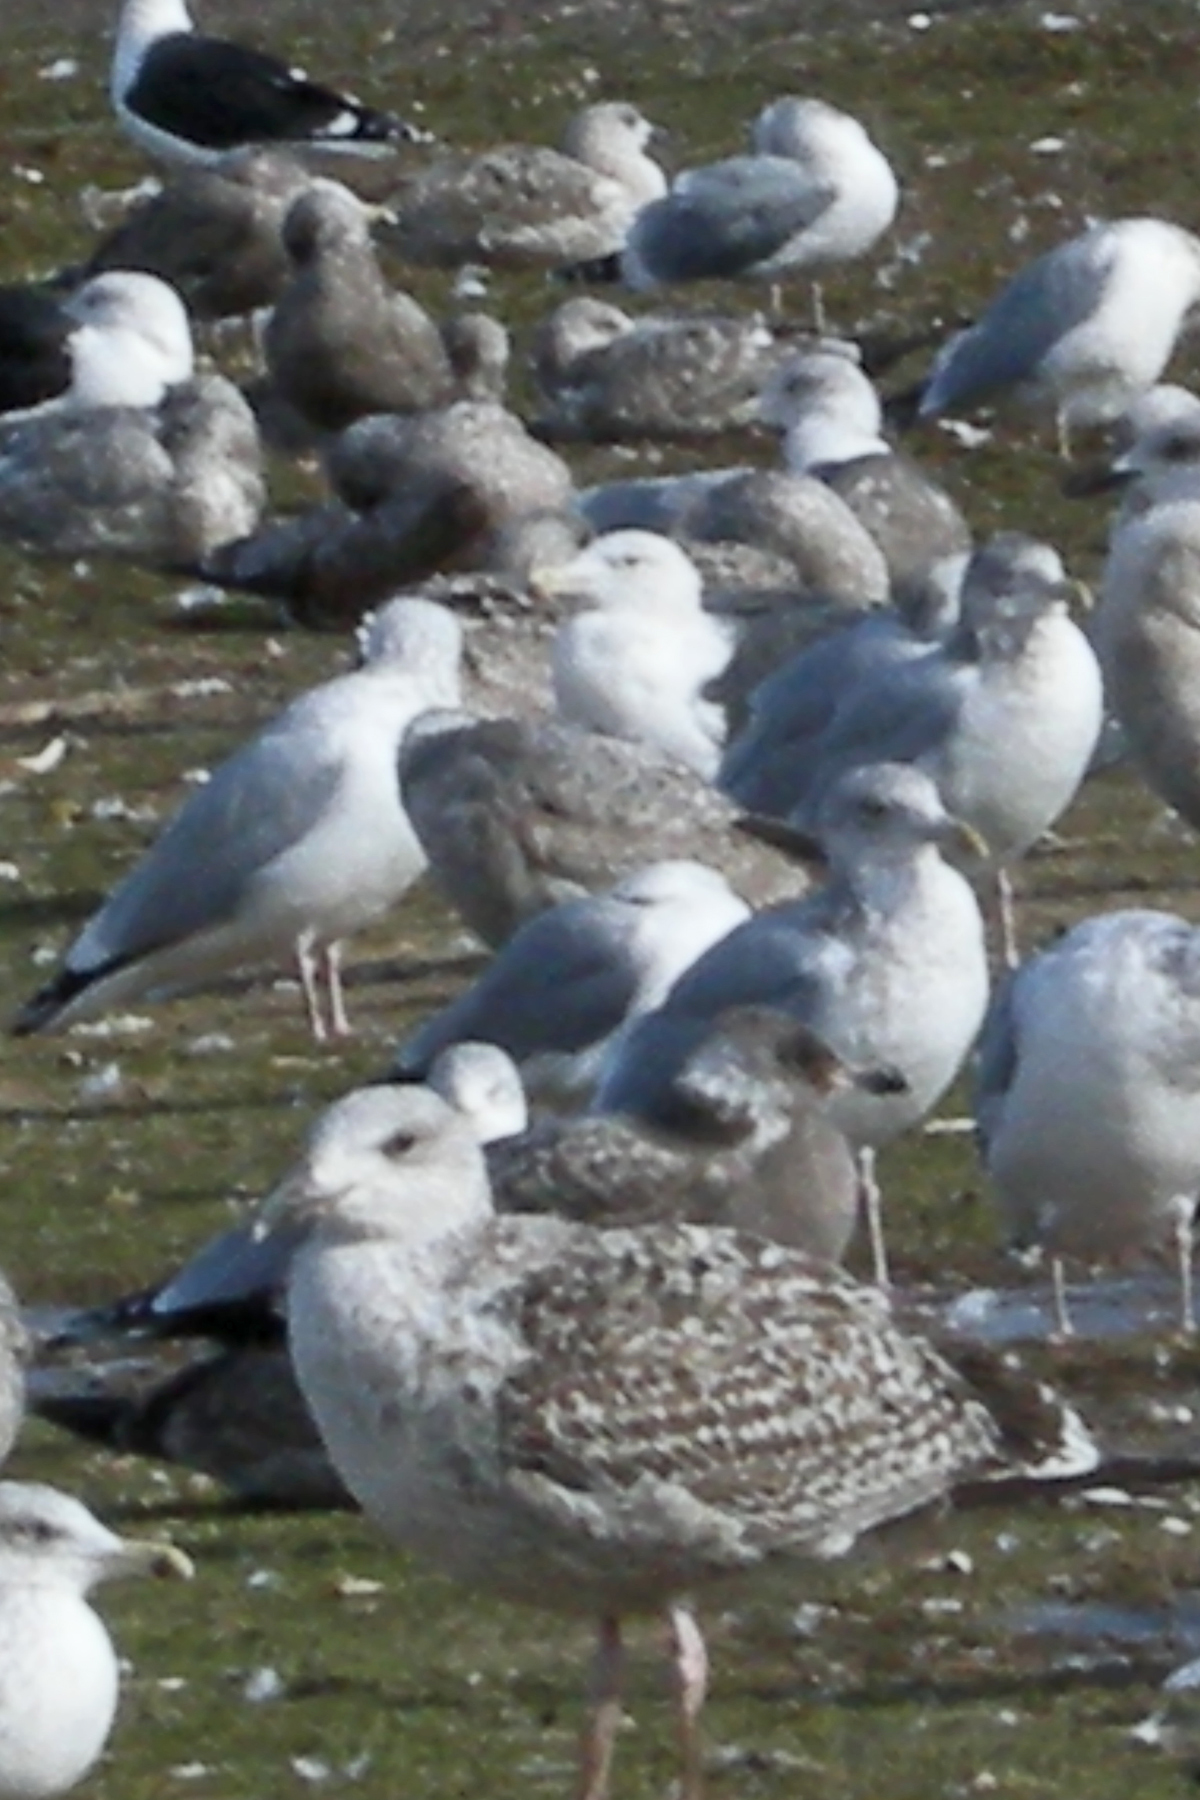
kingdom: Animalia
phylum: Chordata
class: Aves
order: Charadriiformes
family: Laridae
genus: Larus
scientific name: Larus marinus
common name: Great black-backed gull
